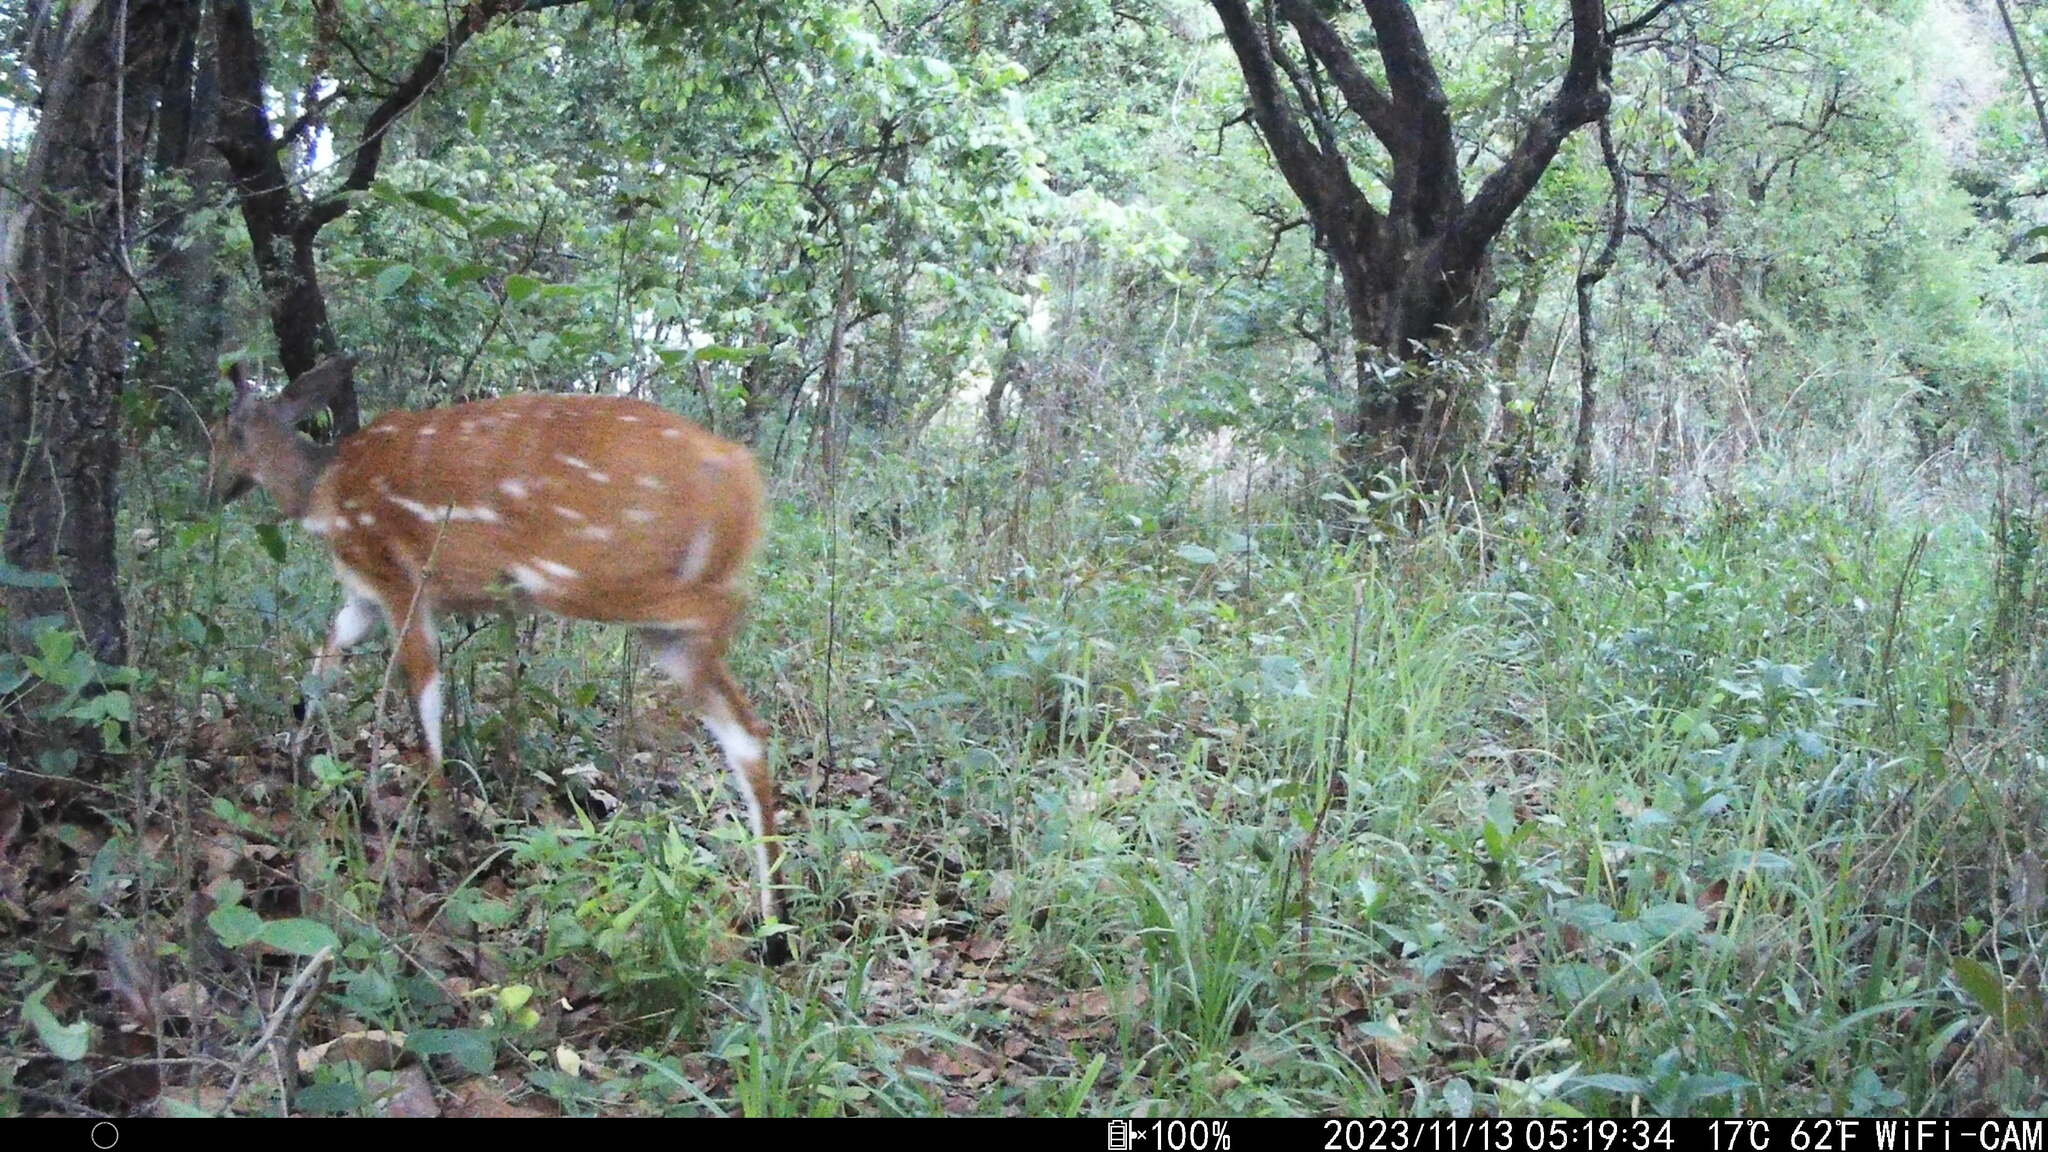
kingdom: Animalia
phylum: Chordata
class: Mammalia
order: Artiodactyla
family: Bovidae
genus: Tragelaphus
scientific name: Tragelaphus scriptus
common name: Bushbuck
